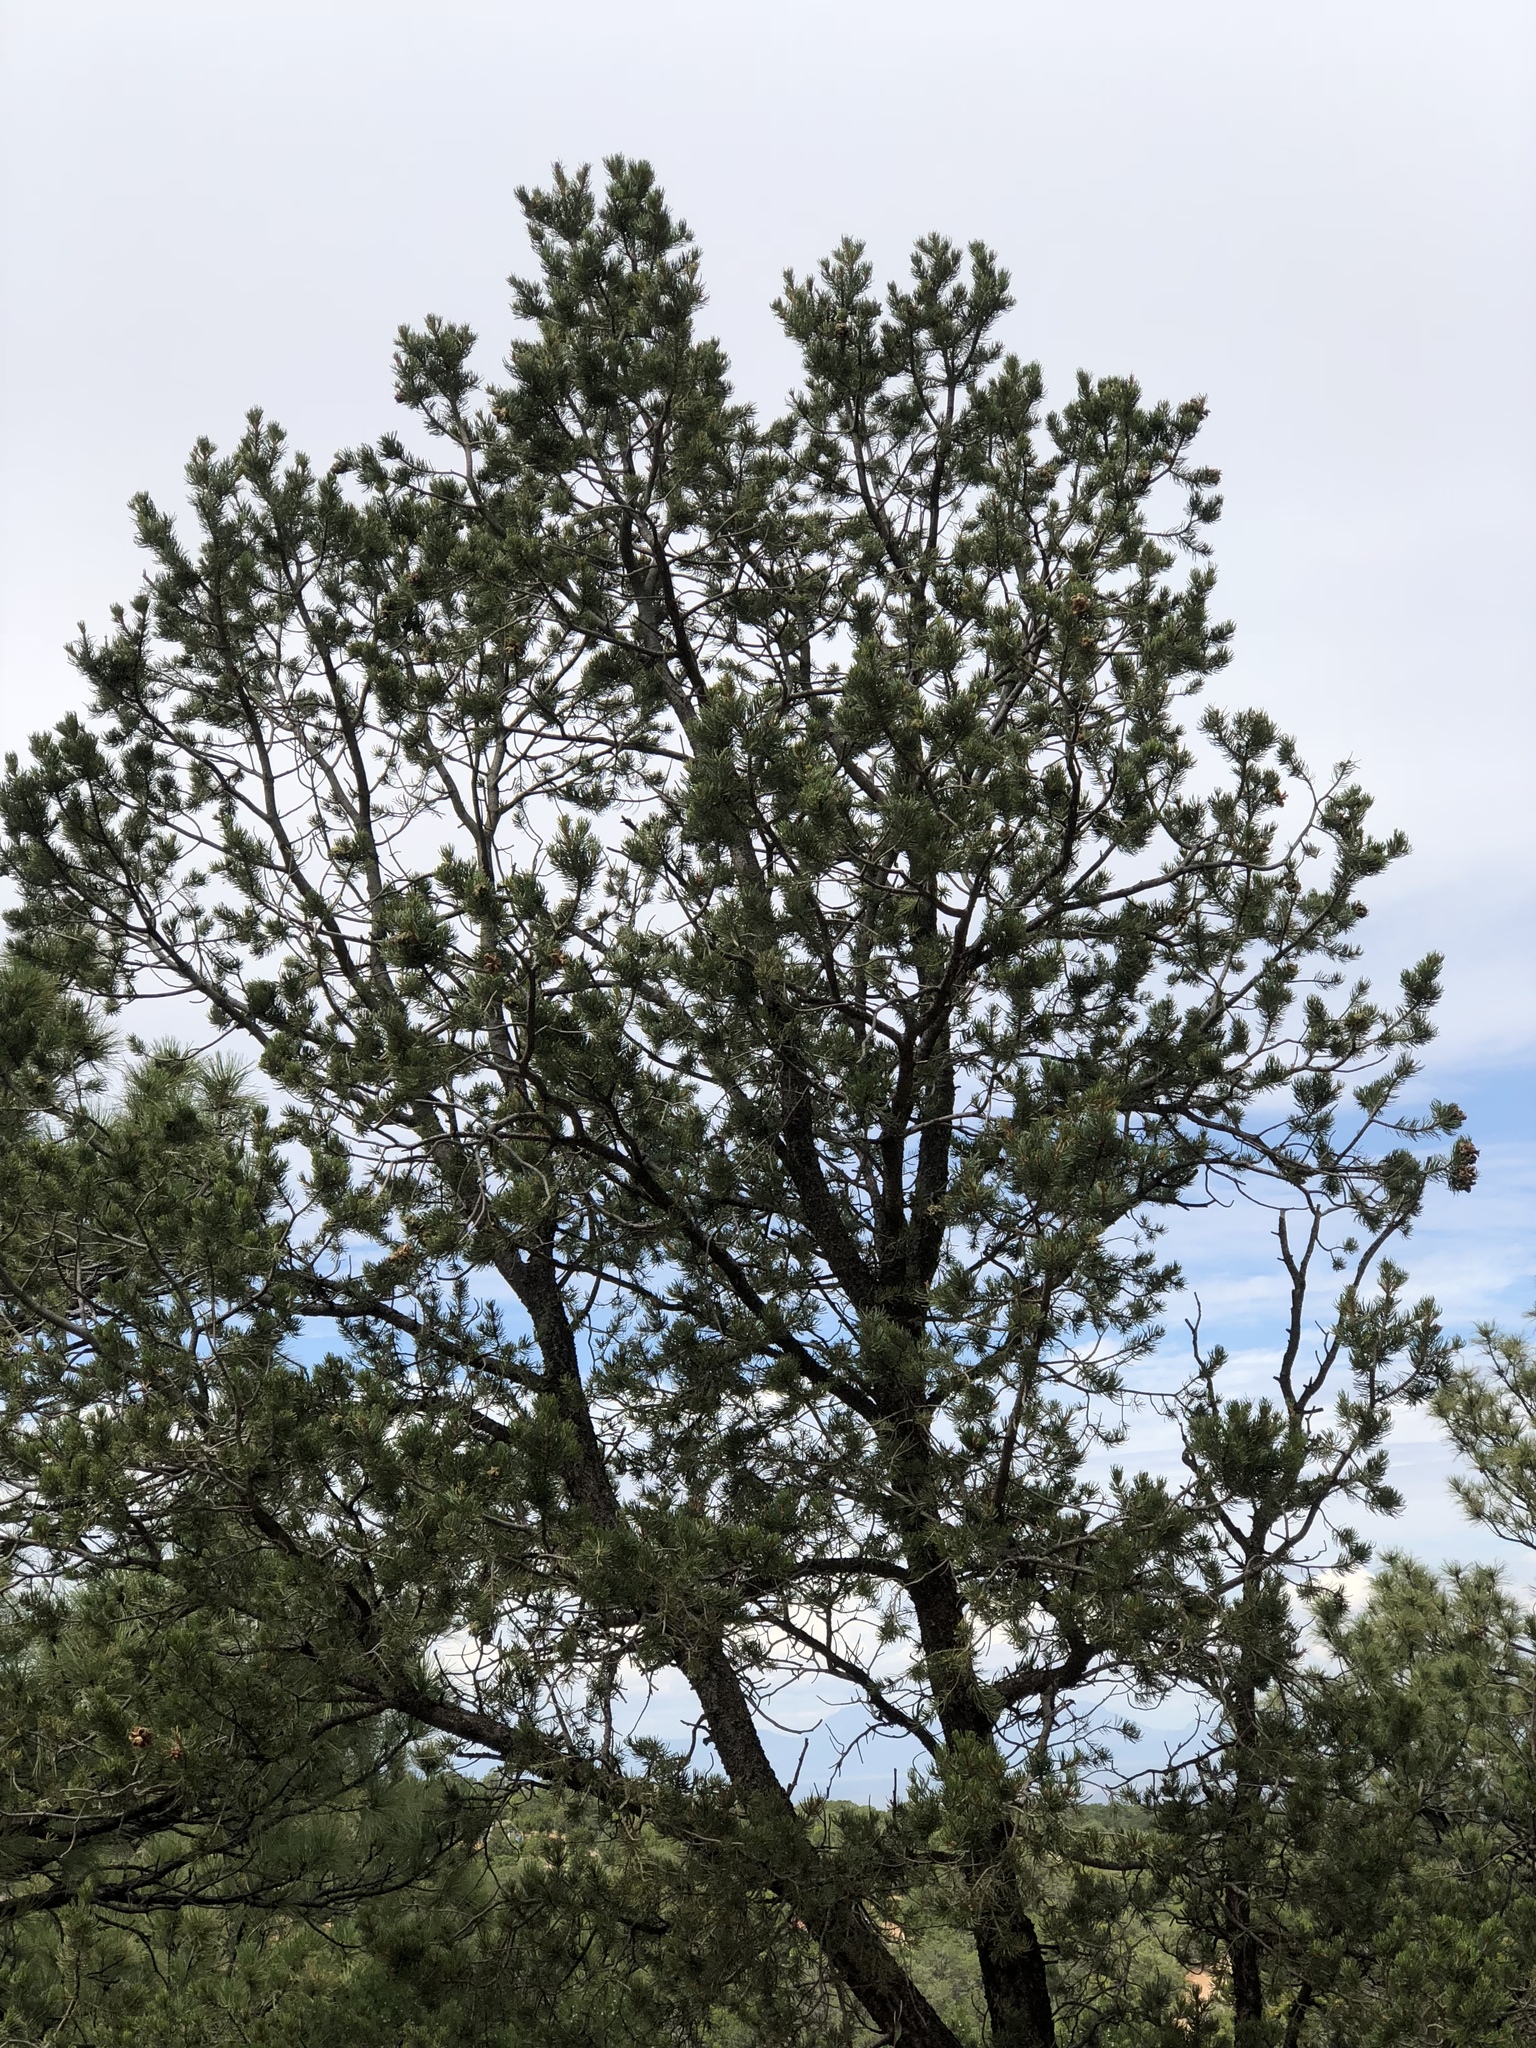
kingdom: Plantae
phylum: Tracheophyta
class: Pinopsida
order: Pinales
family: Pinaceae
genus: Pinus
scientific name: Pinus edulis
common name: Colorado pinyon
